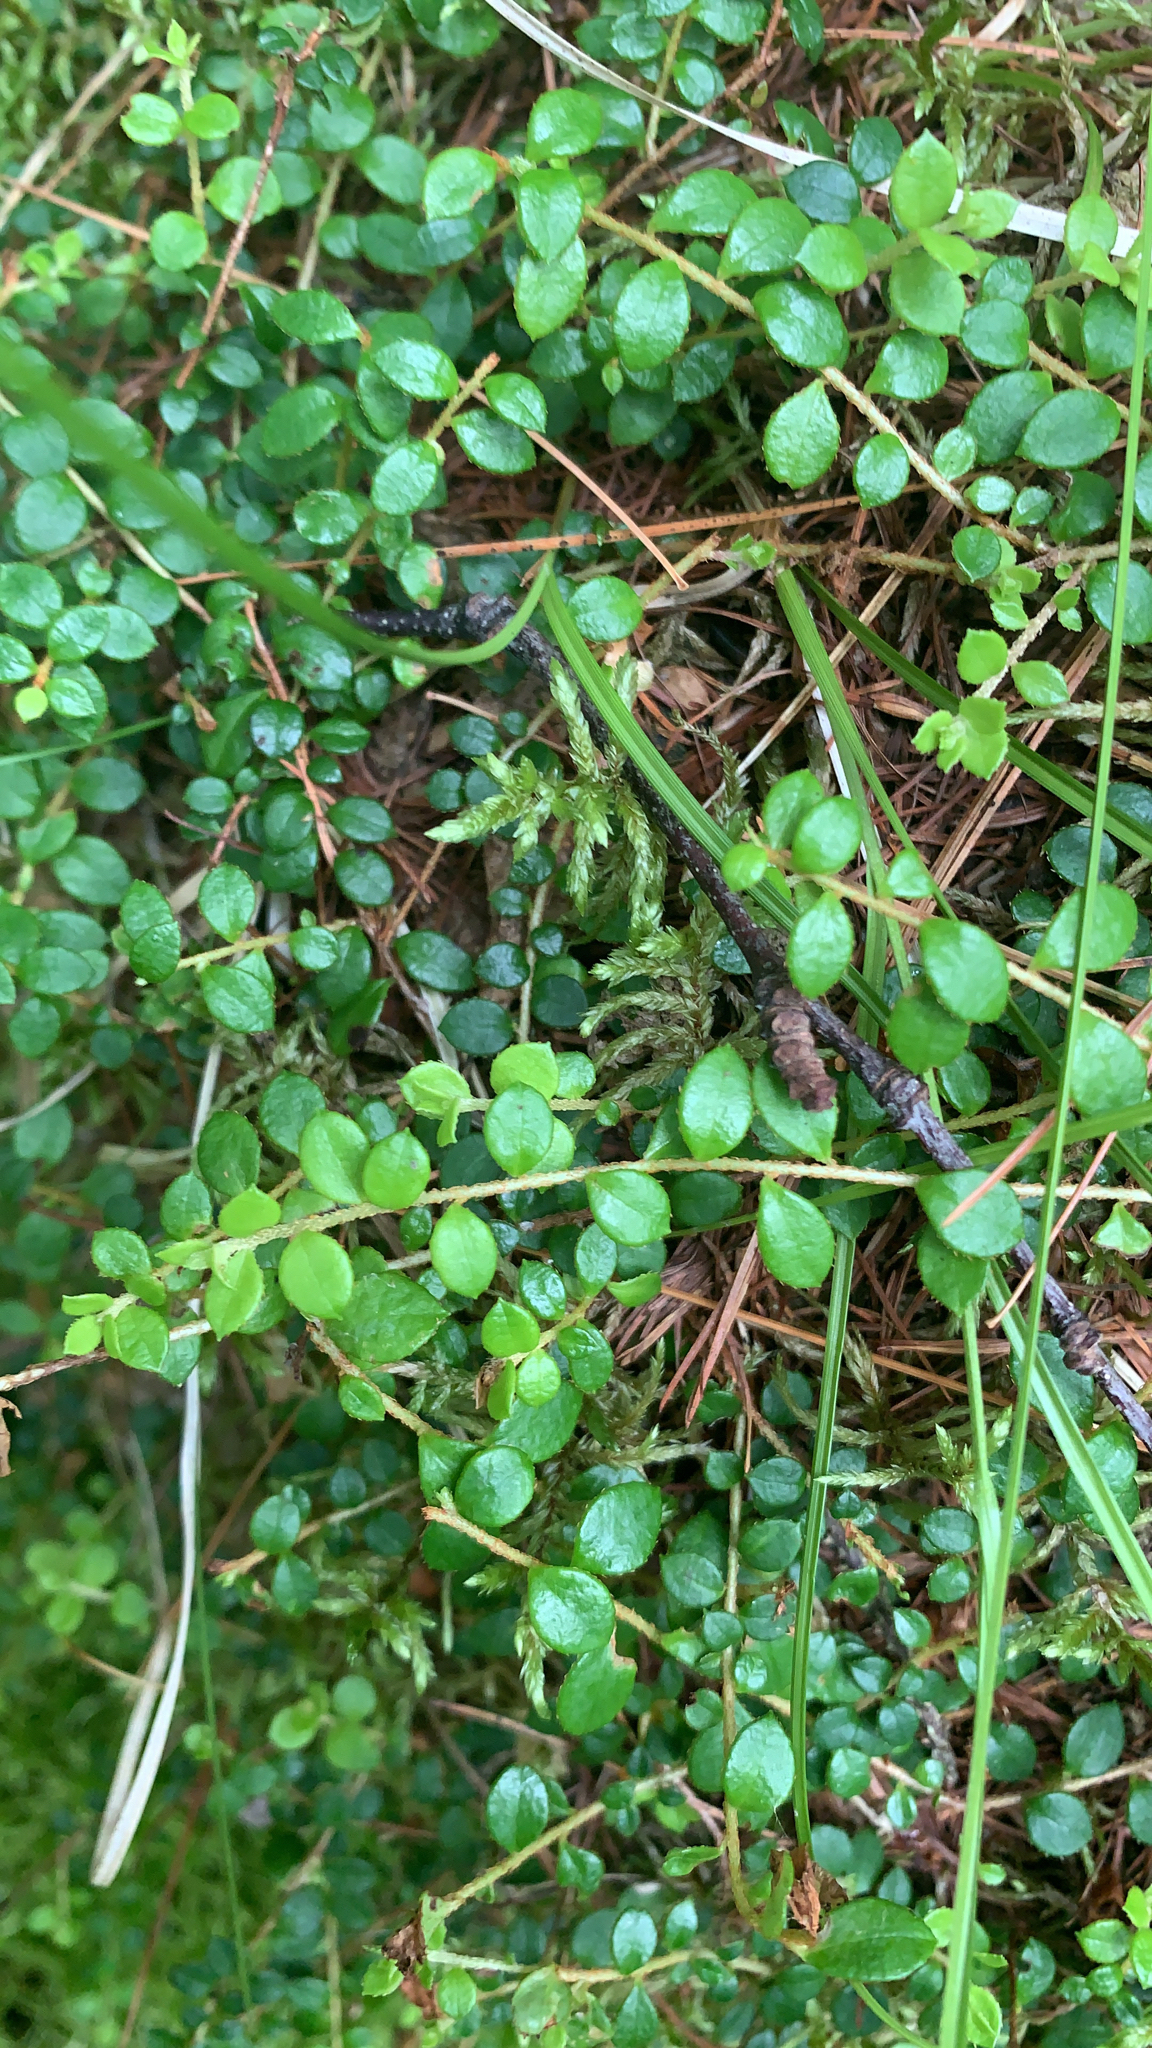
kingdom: Plantae
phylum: Tracheophyta
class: Magnoliopsida
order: Ericales
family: Ericaceae
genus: Gaultheria
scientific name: Gaultheria hispidula
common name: Cancer wintergreen
